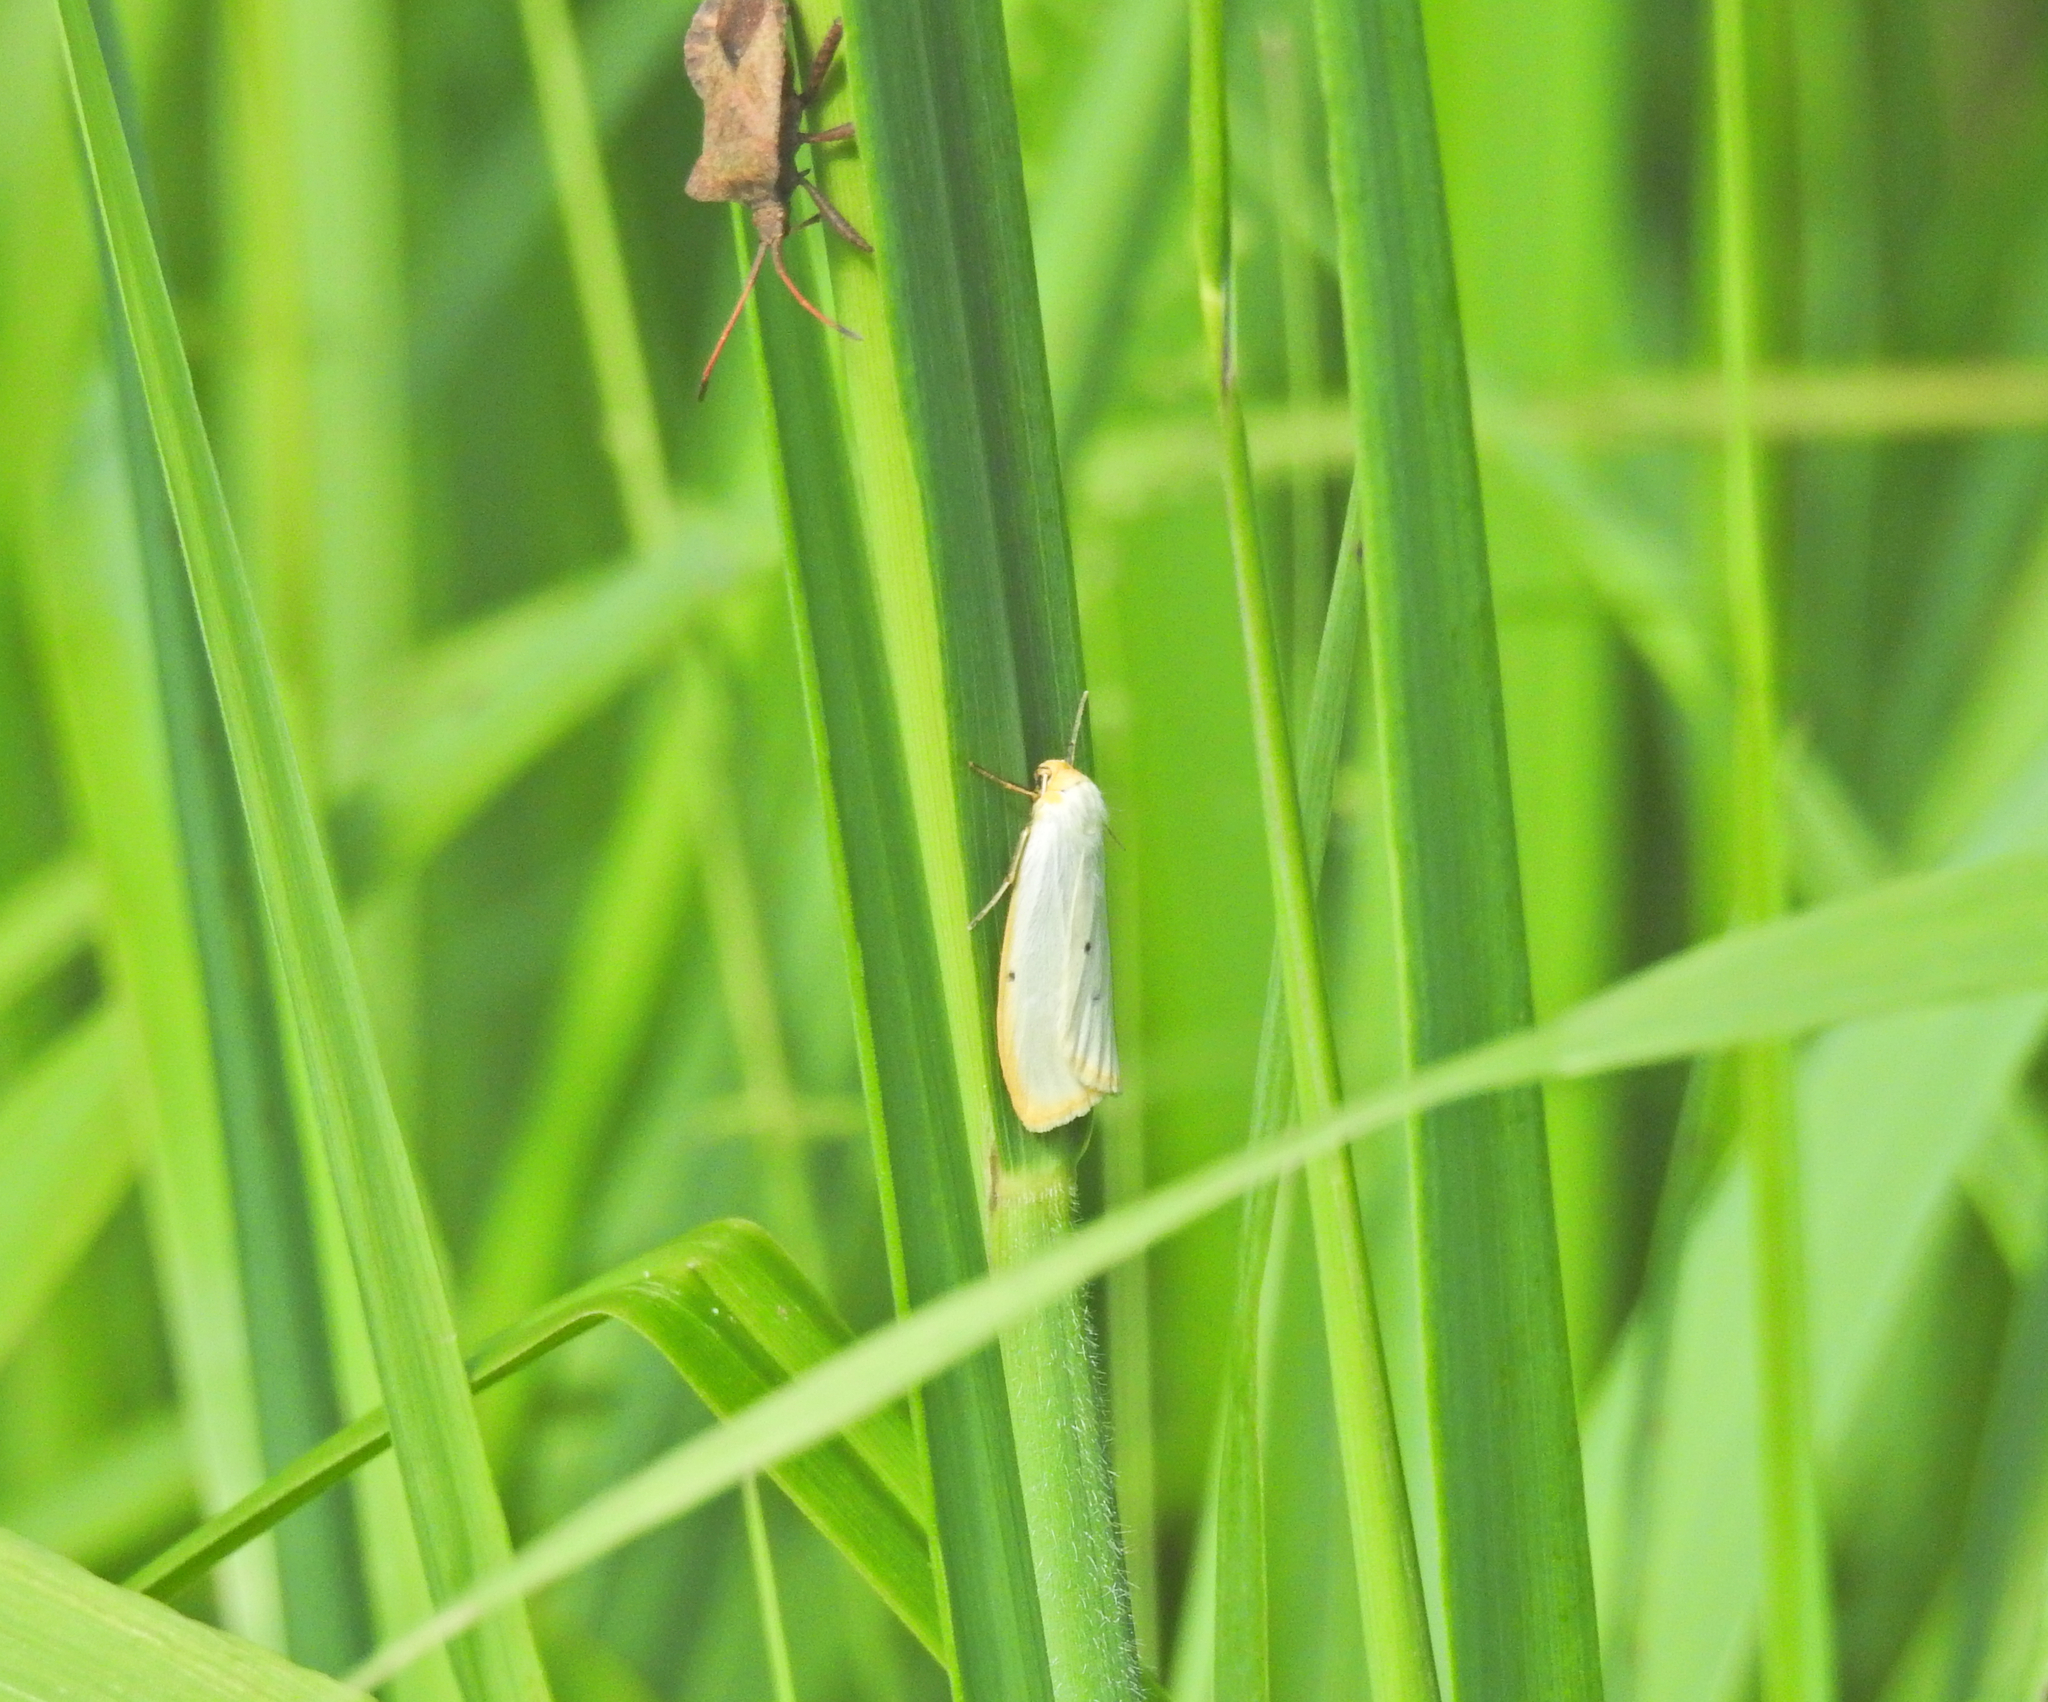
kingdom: Animalia
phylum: Arthropoda
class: Insecta
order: Lepidoptera
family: Erebidae
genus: Cybosia
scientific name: Cybosia mesomella
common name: Four-dotted footman
